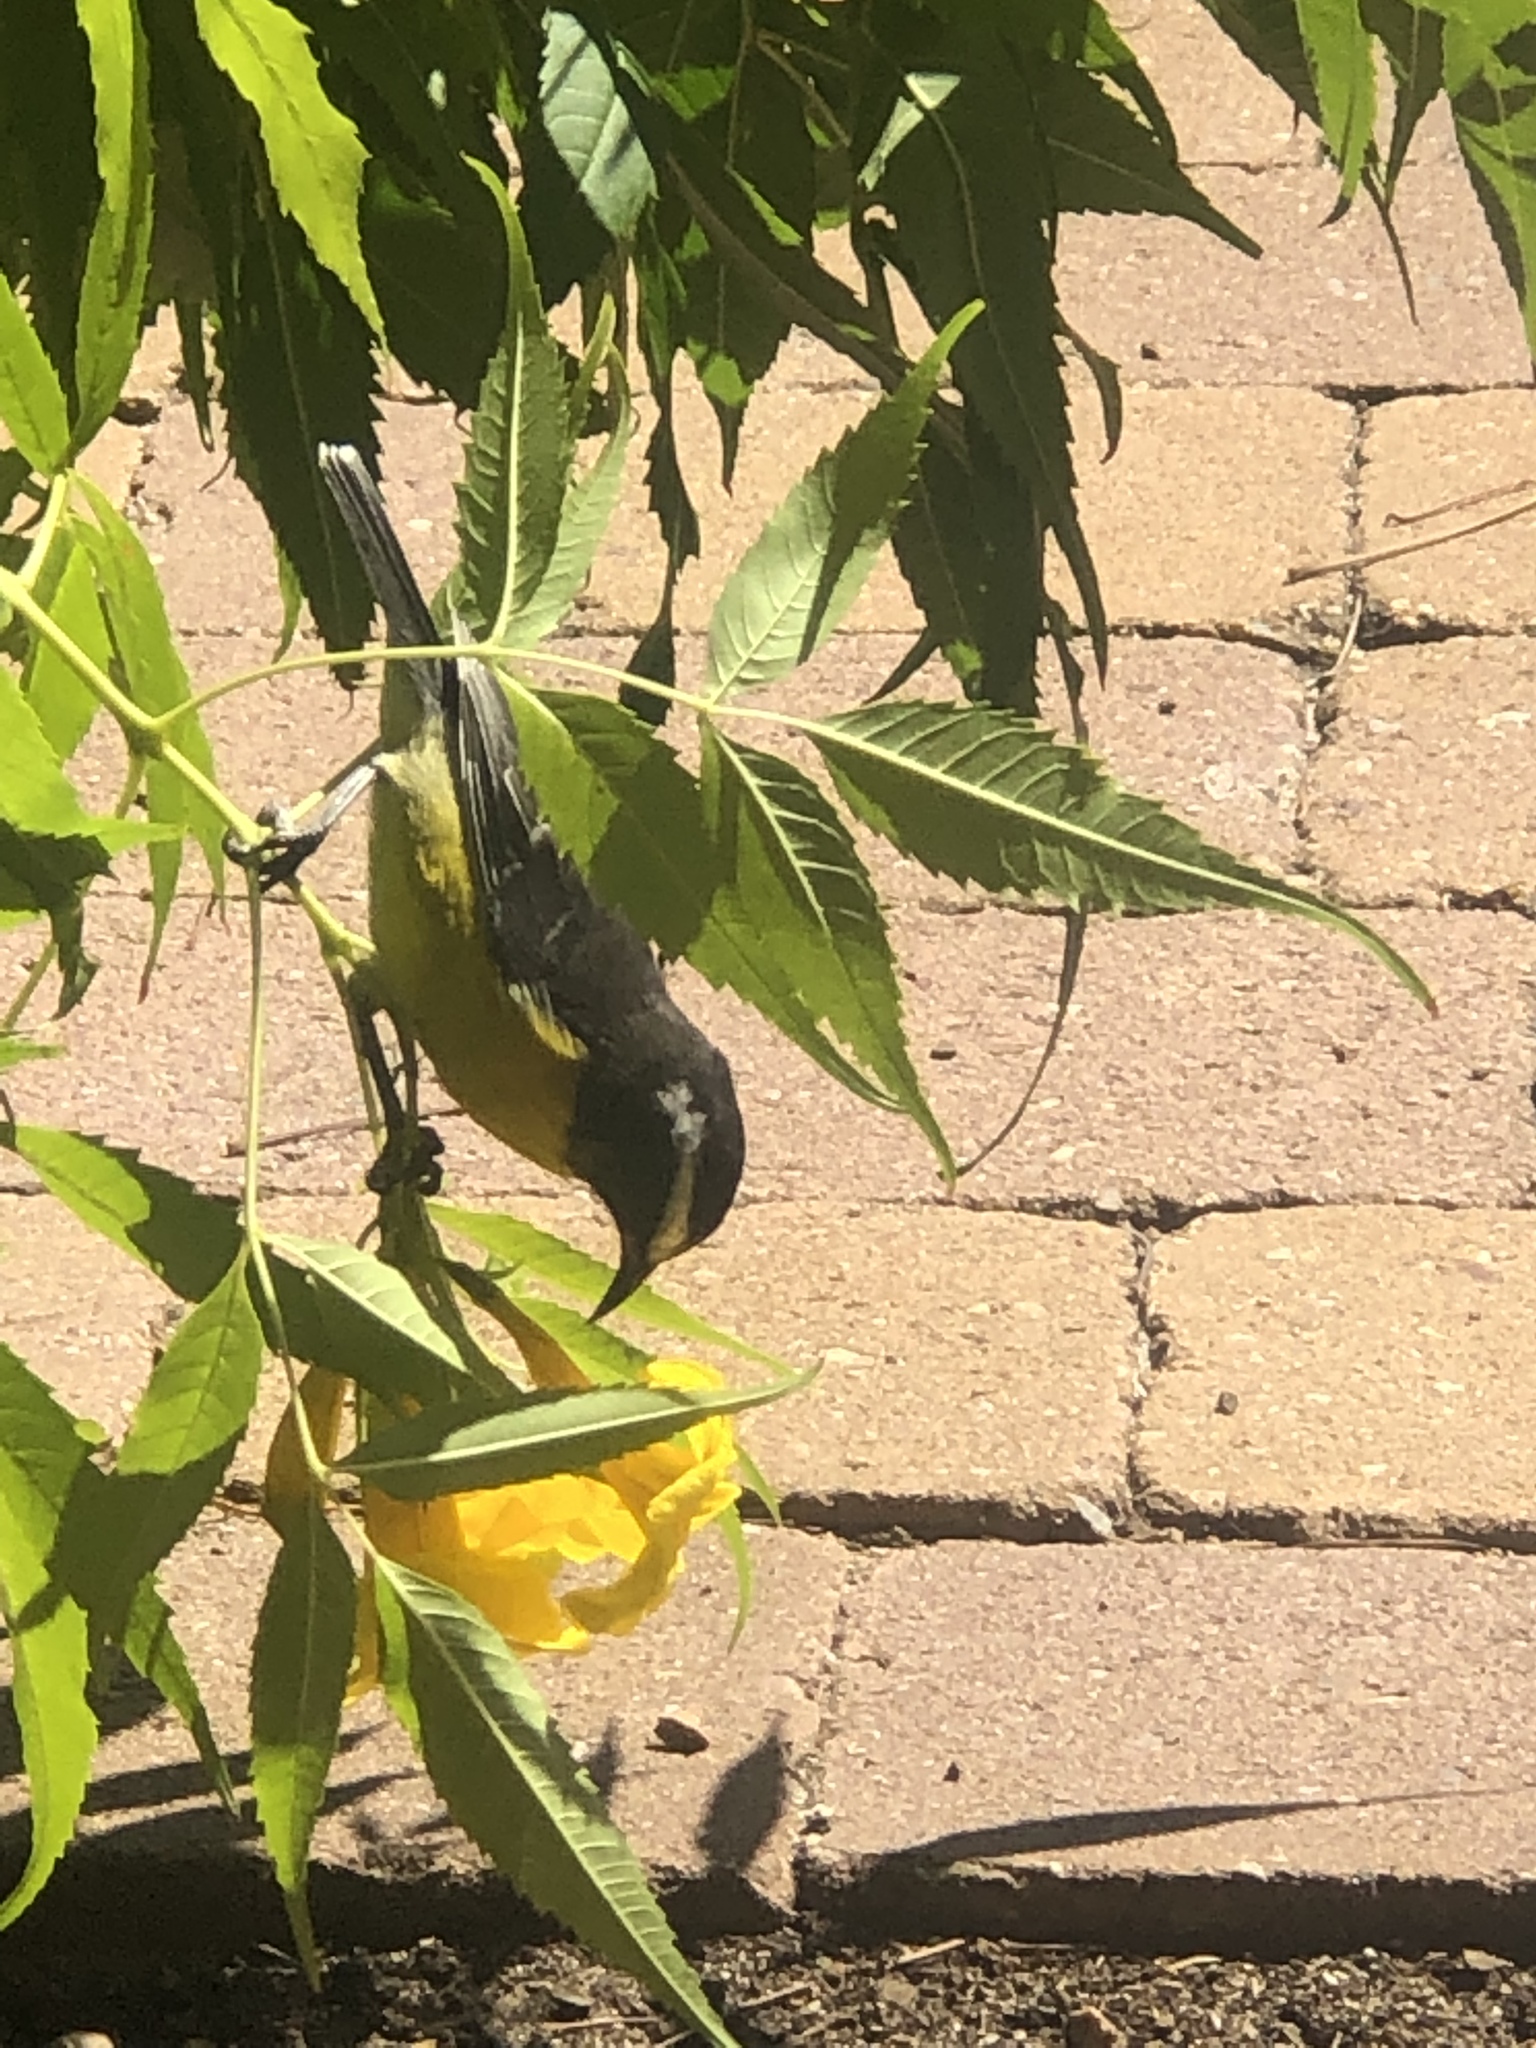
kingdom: Animalia
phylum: Chordata
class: Aves
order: Passeriformes
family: Thraupidae
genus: Coereba
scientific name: Coereba flaveola
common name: Bananaquit
